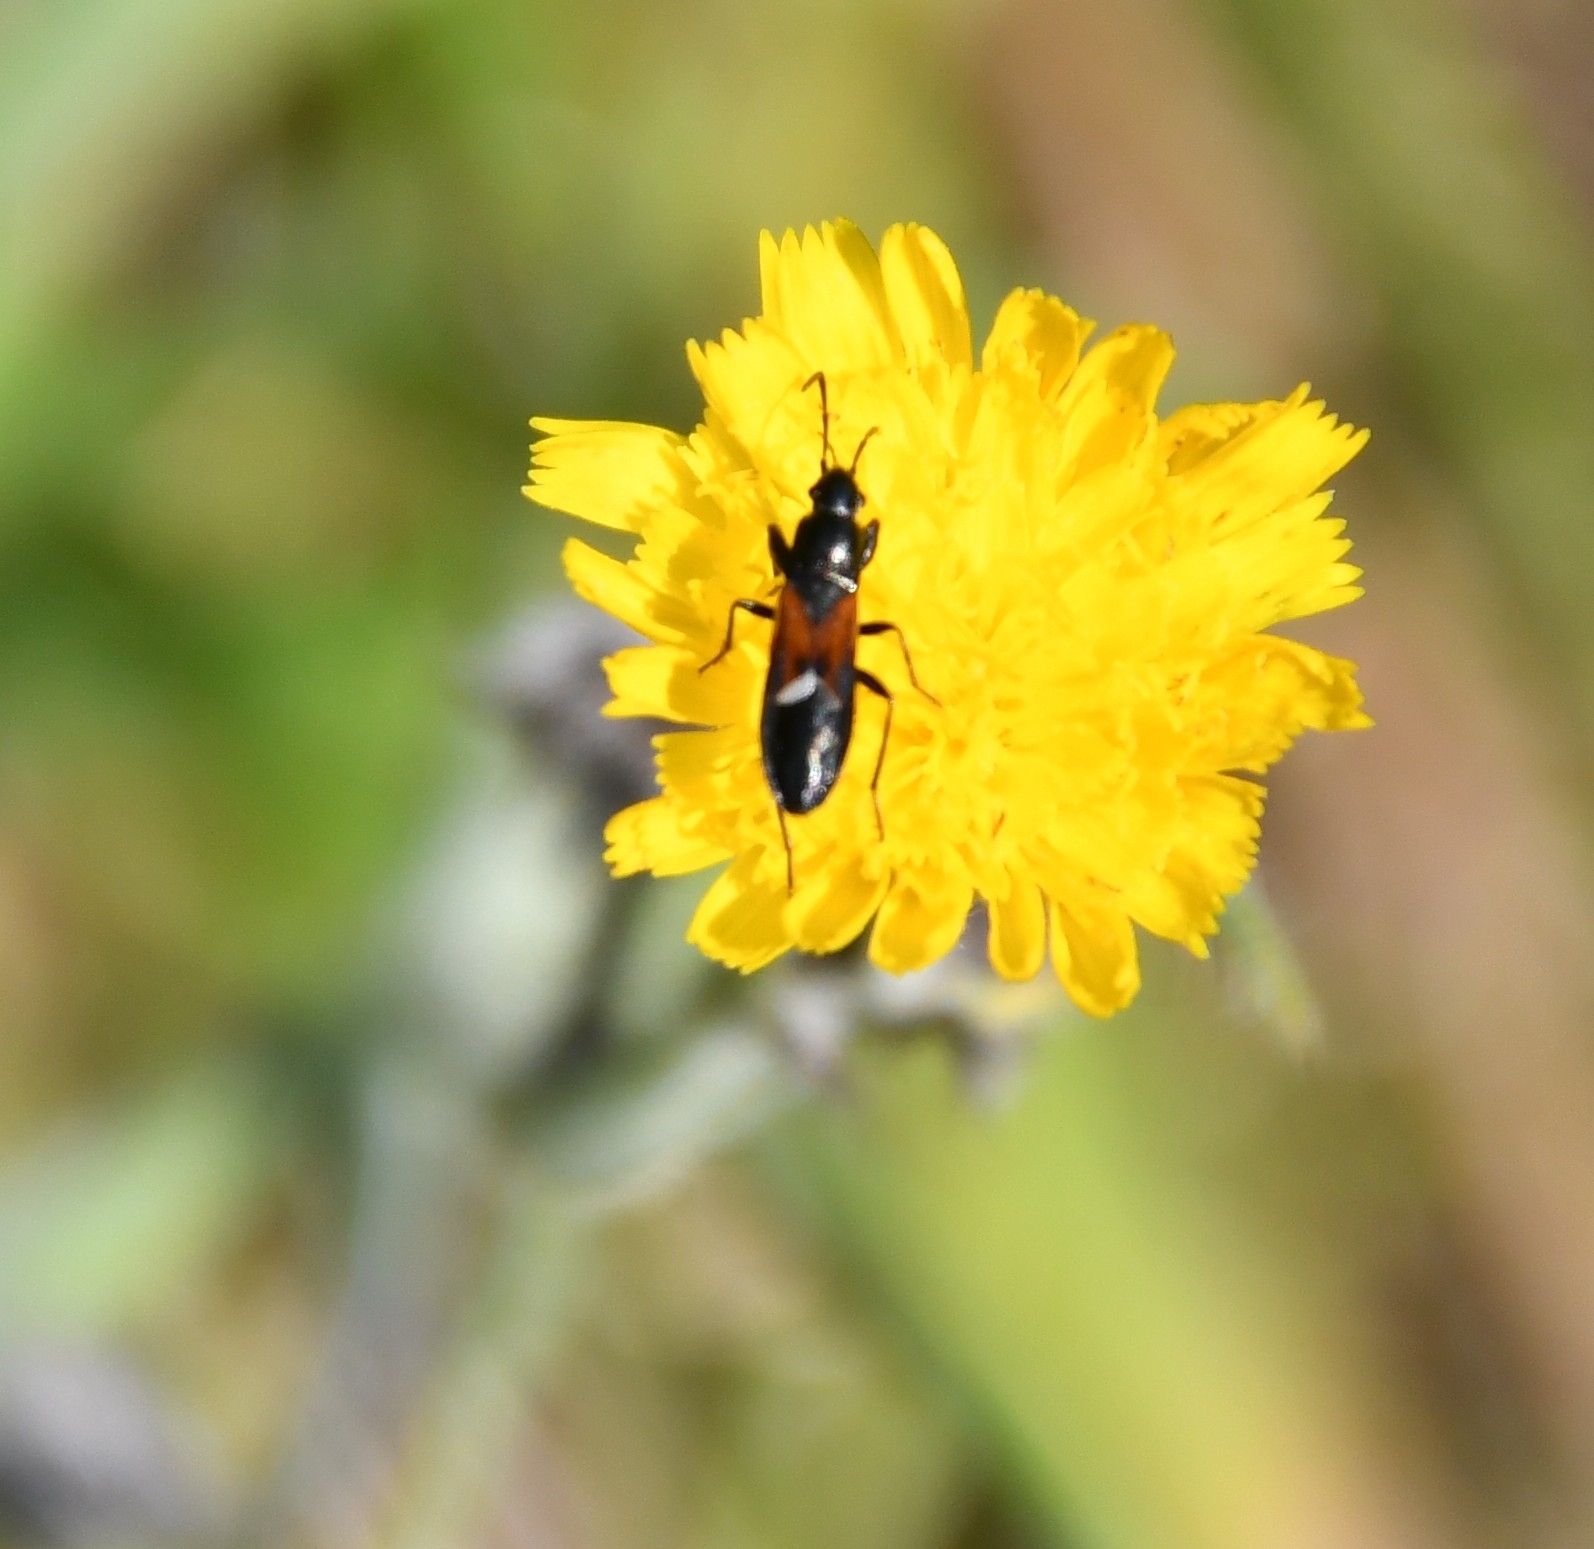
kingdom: Animalia
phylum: Arthropoda
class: Insecta
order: Hemiptera
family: Rhyparochromidae
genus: Pterotmetus
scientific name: Pterotmetus staphyliniformis
